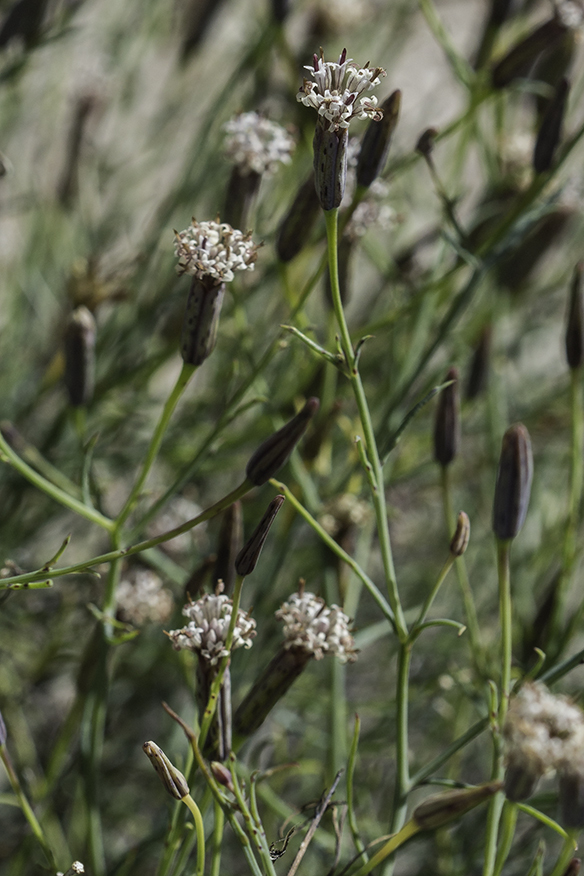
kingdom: Plantae
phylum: Tracheophyta
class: Magnoliopsida
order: Asterales
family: Asteraceae
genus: Porophyllum
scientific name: Porophyllum gracile
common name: Odora
